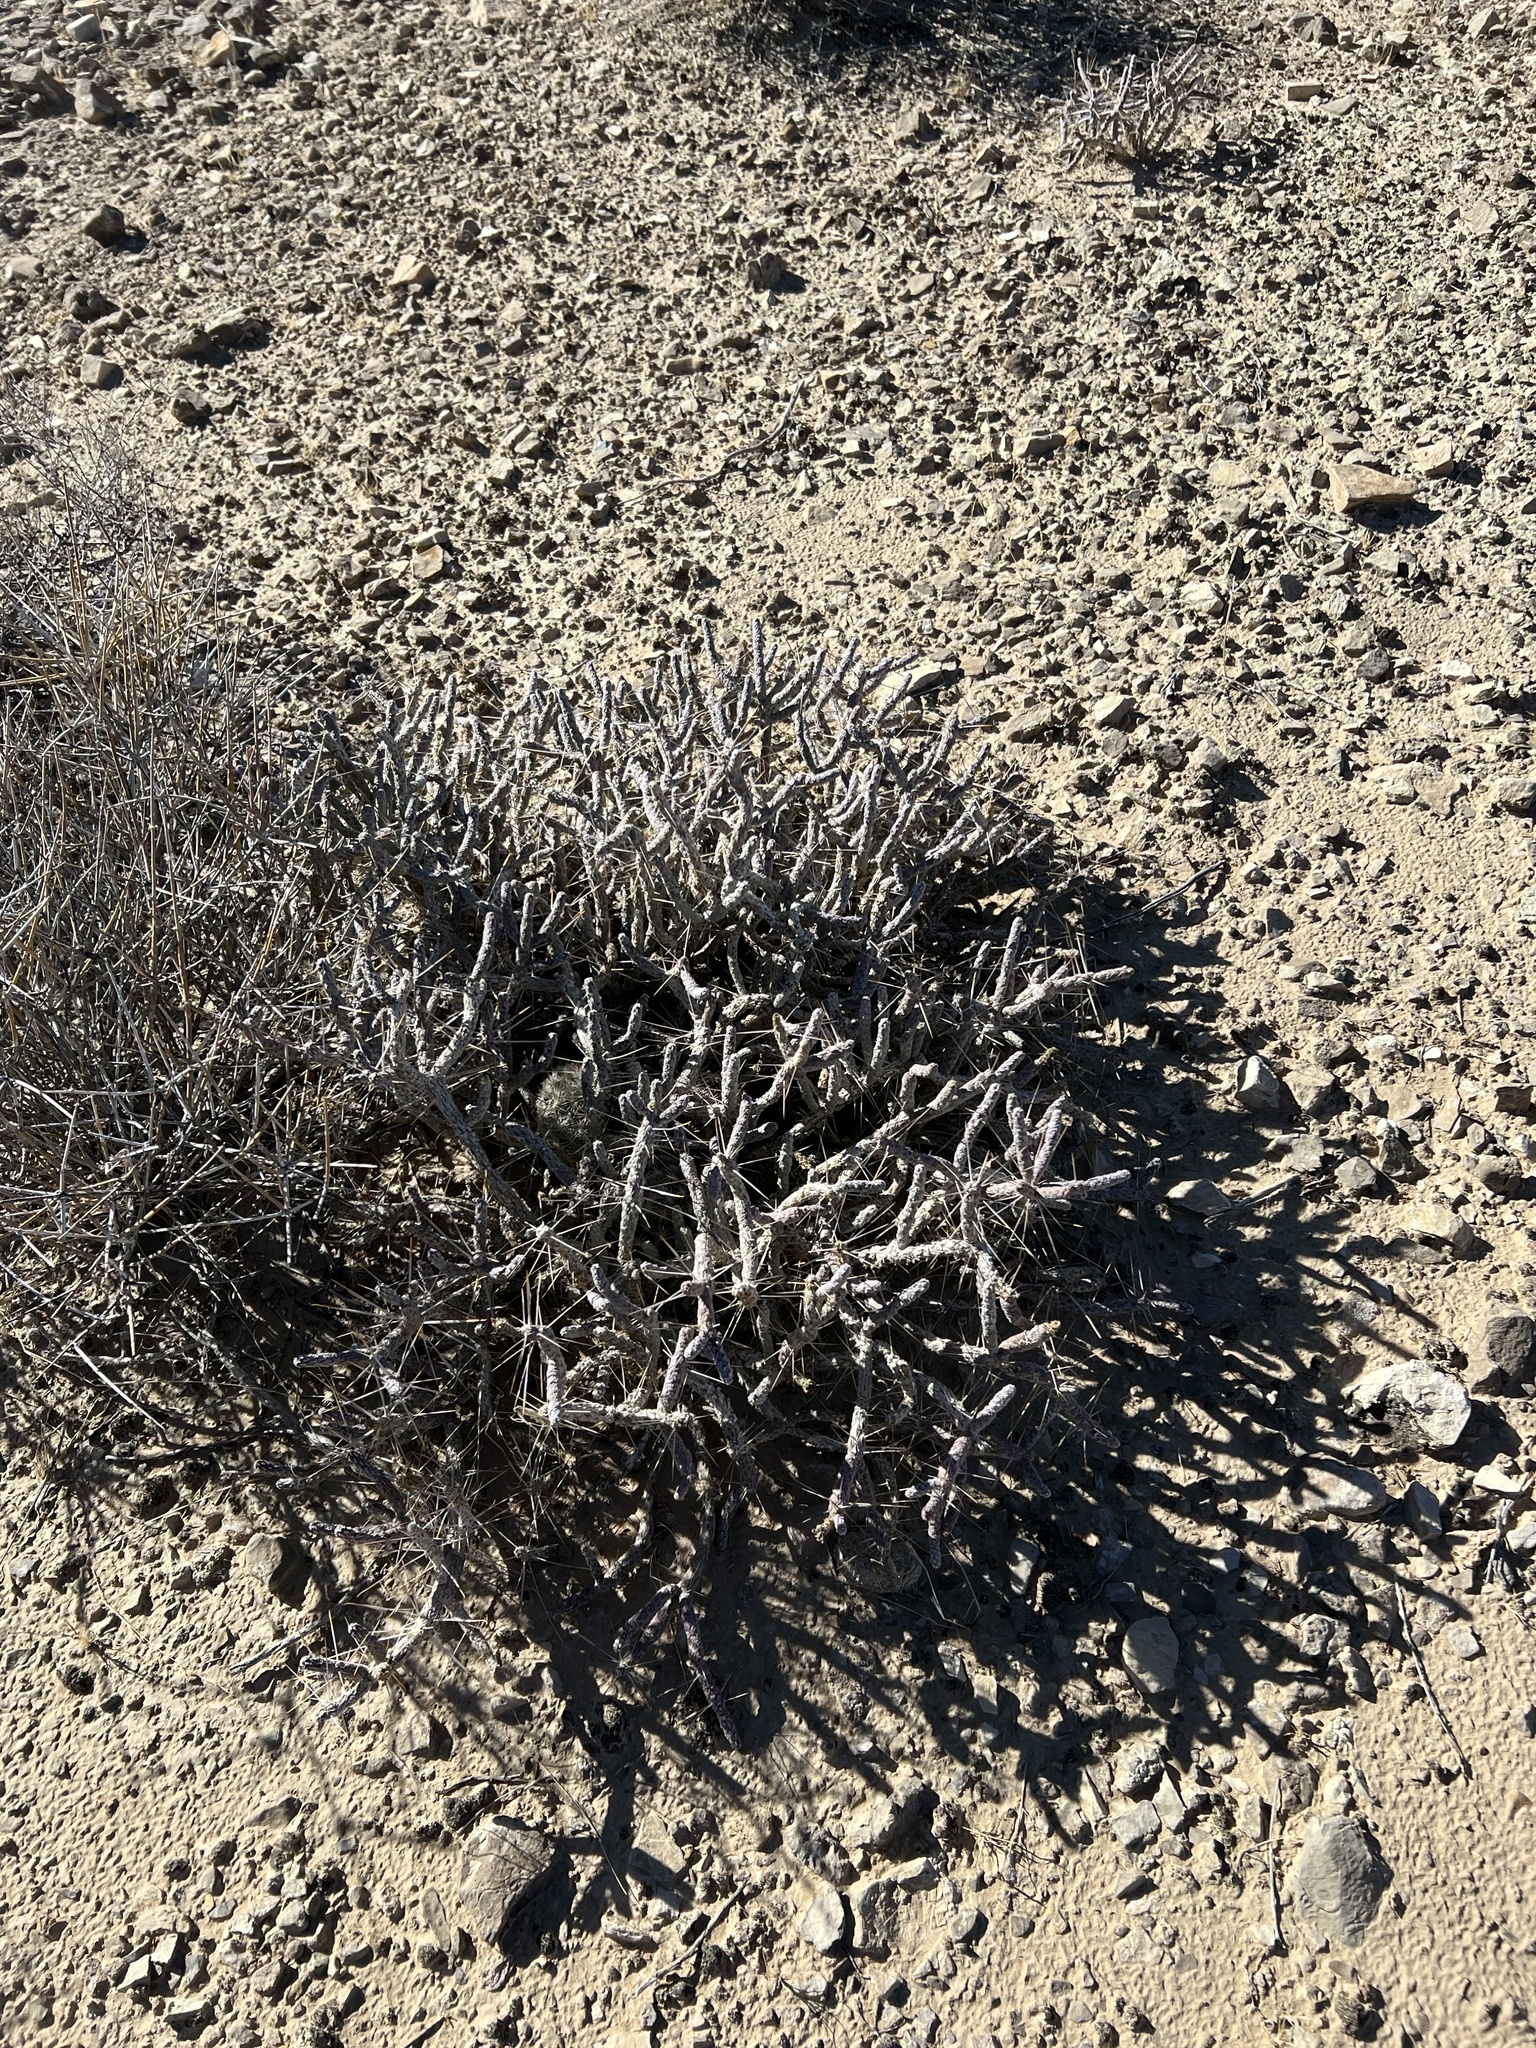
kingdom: Plantae
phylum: Tracheophyta
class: Magnoliopsida
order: Caryophyllales
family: Cactaceae
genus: Cylindropuntia
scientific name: Cylindropuntia ramosissima
